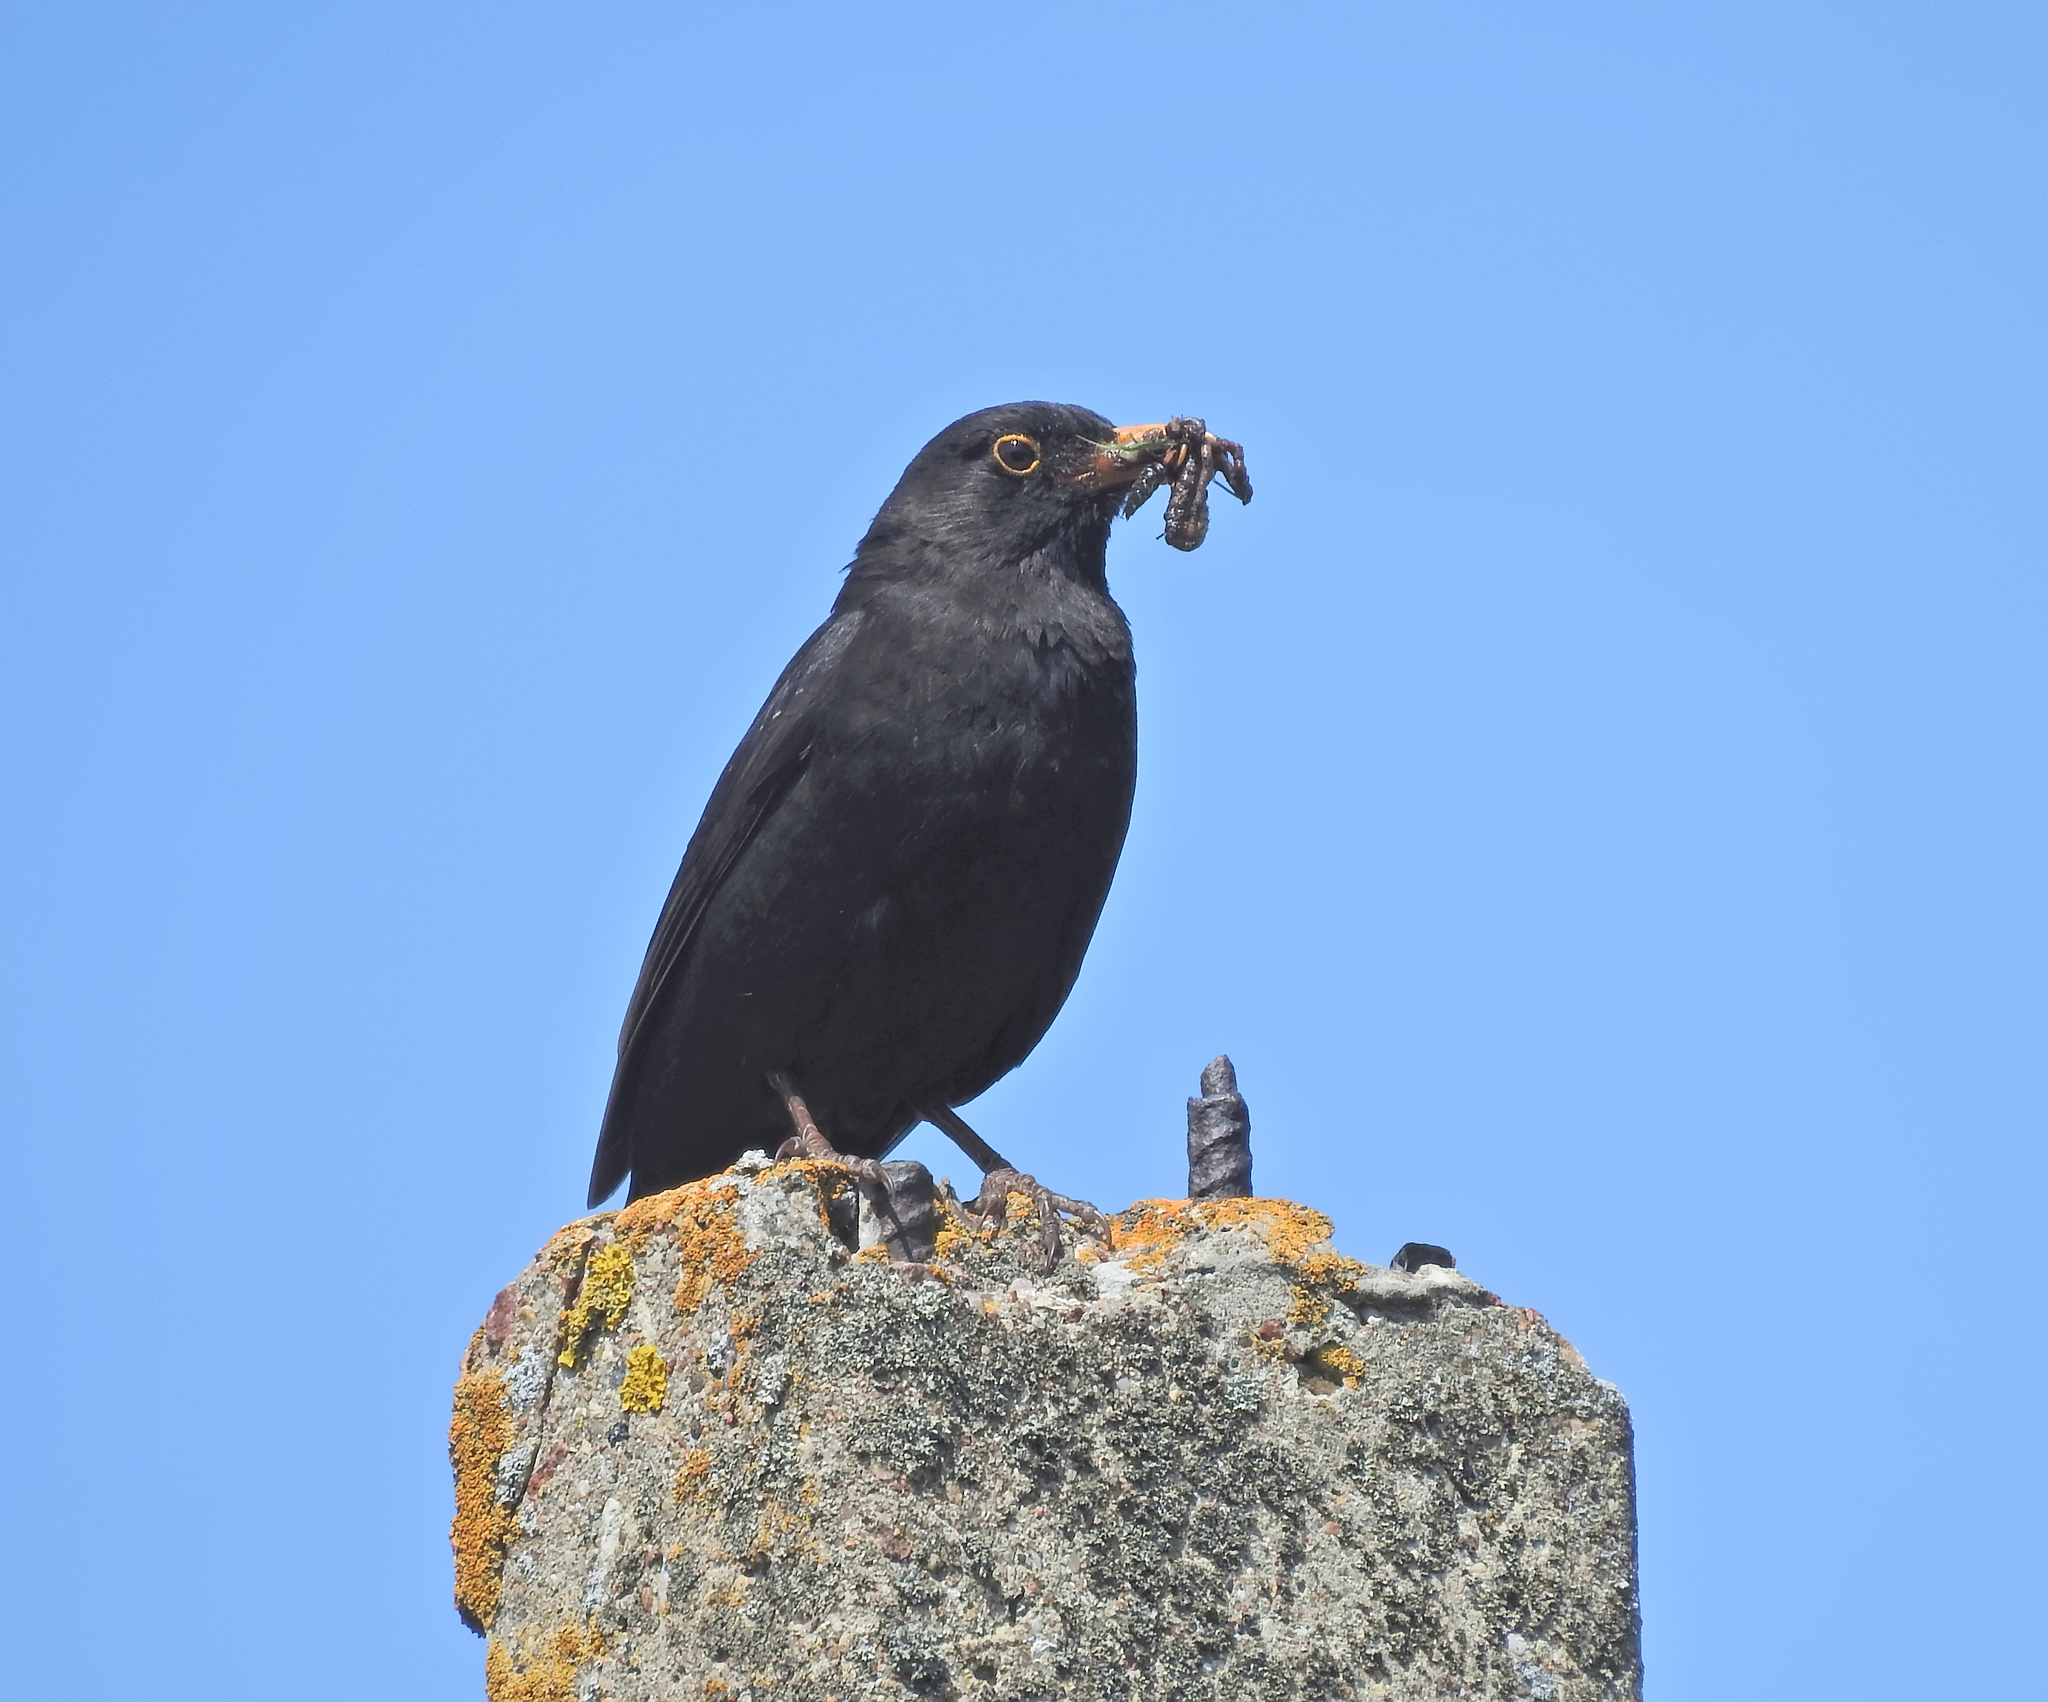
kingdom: Animalia
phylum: Chordata
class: Aves
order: Passeriformes
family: Turdidae
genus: Turdus
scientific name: Turdus merula
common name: Common blackbird
